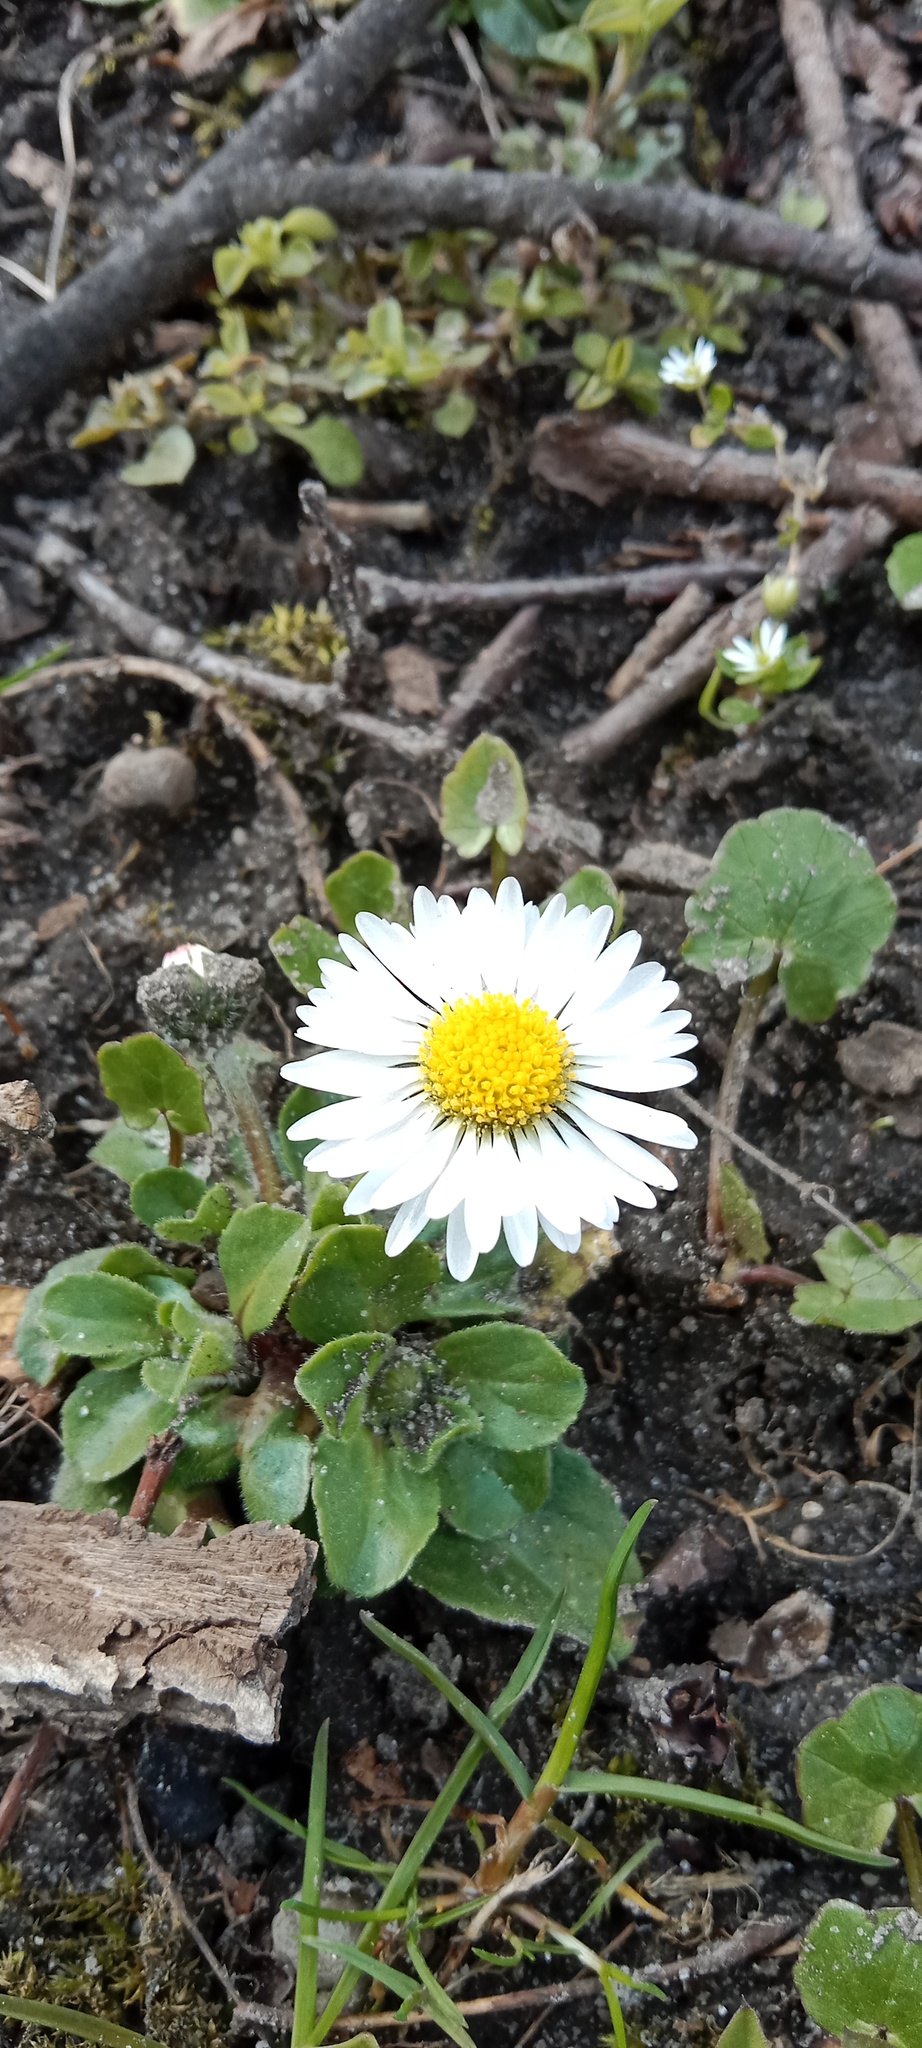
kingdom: Plantae
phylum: Tracheophyta
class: Magnoliopsida
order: Asterales
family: Asteraceae
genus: Bellis
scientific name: Bellis perennis
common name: Lawndaisy
